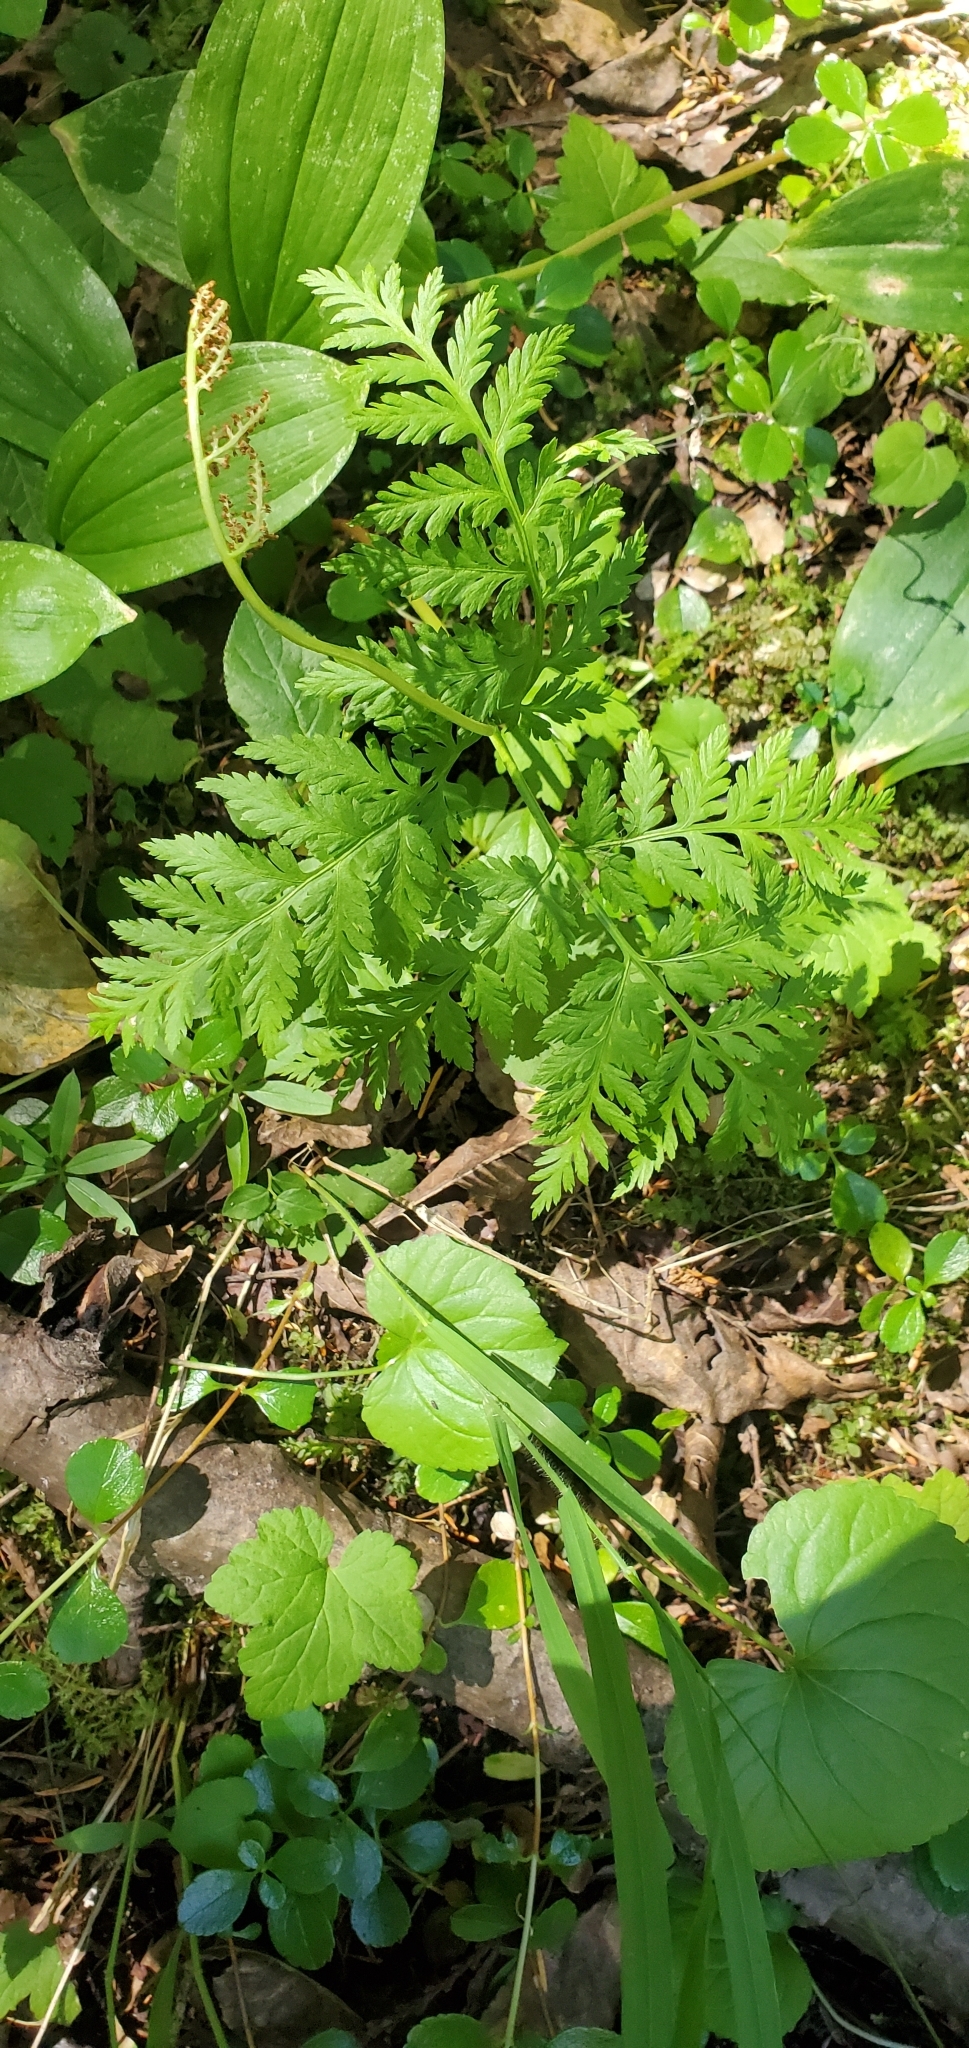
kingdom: Plantae
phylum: Tracheophyta
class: Polypodiopsida
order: Ophioglossales
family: Ophioglossaceae
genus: Botrypus
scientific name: Botrypus virginianus
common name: Common grapefern
